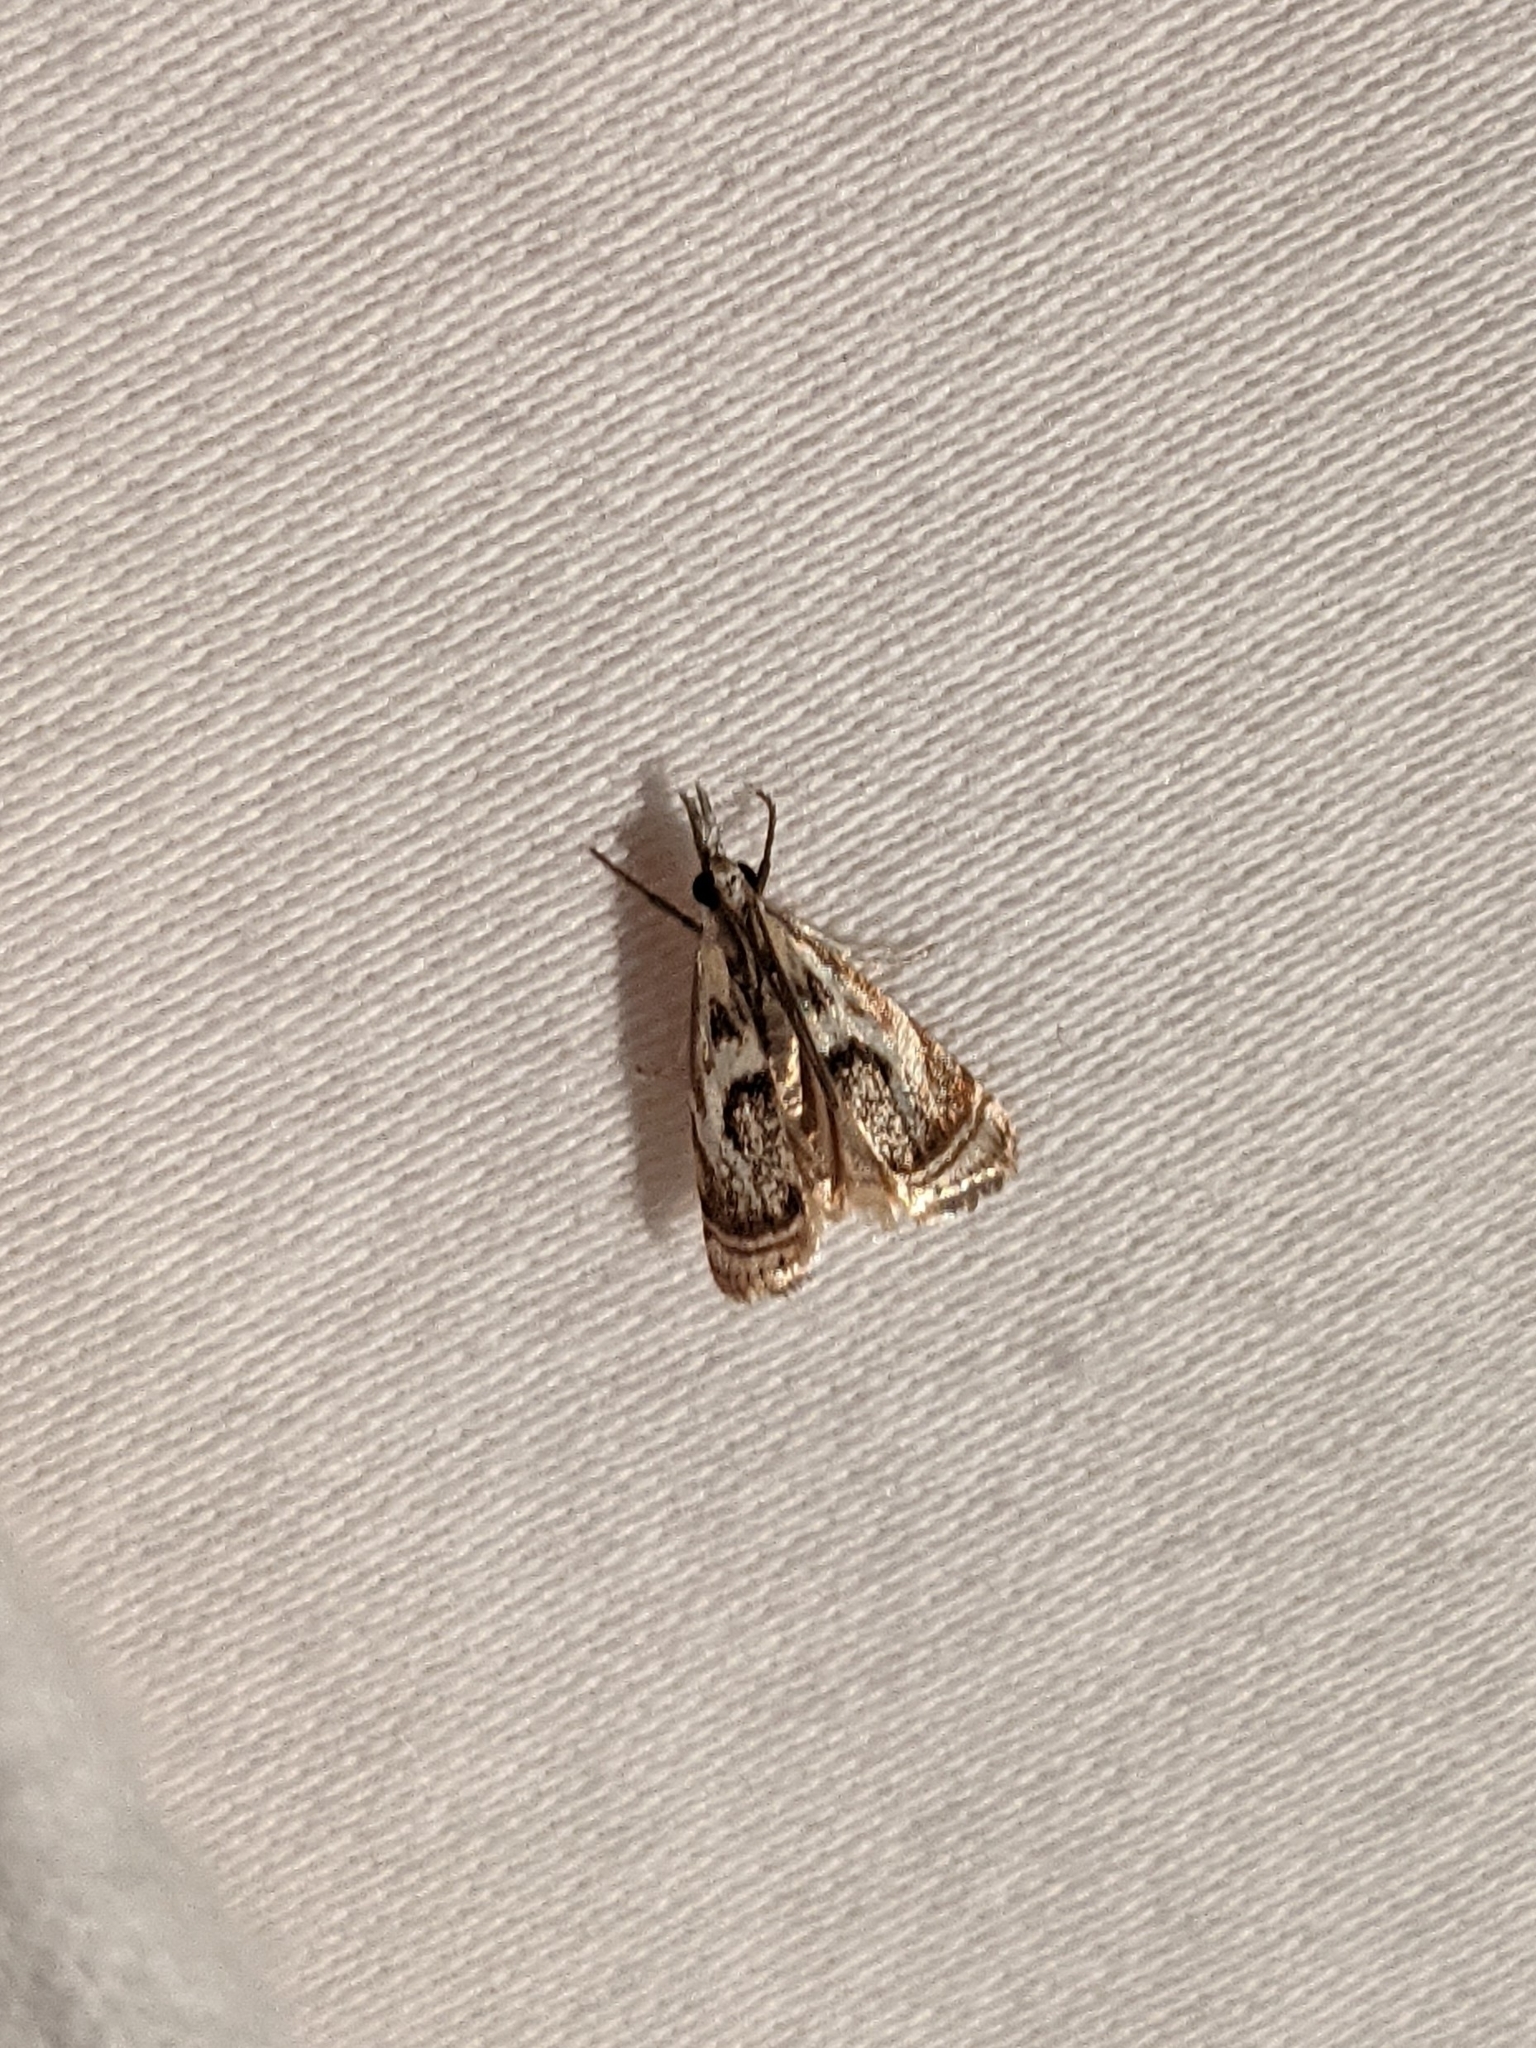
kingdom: Animalia
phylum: Arthropoda
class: Insecta
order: Lepidoptera
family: Crambidae
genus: Microcrambus
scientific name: Microcrambus elegans
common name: Elegant grass-veneer
